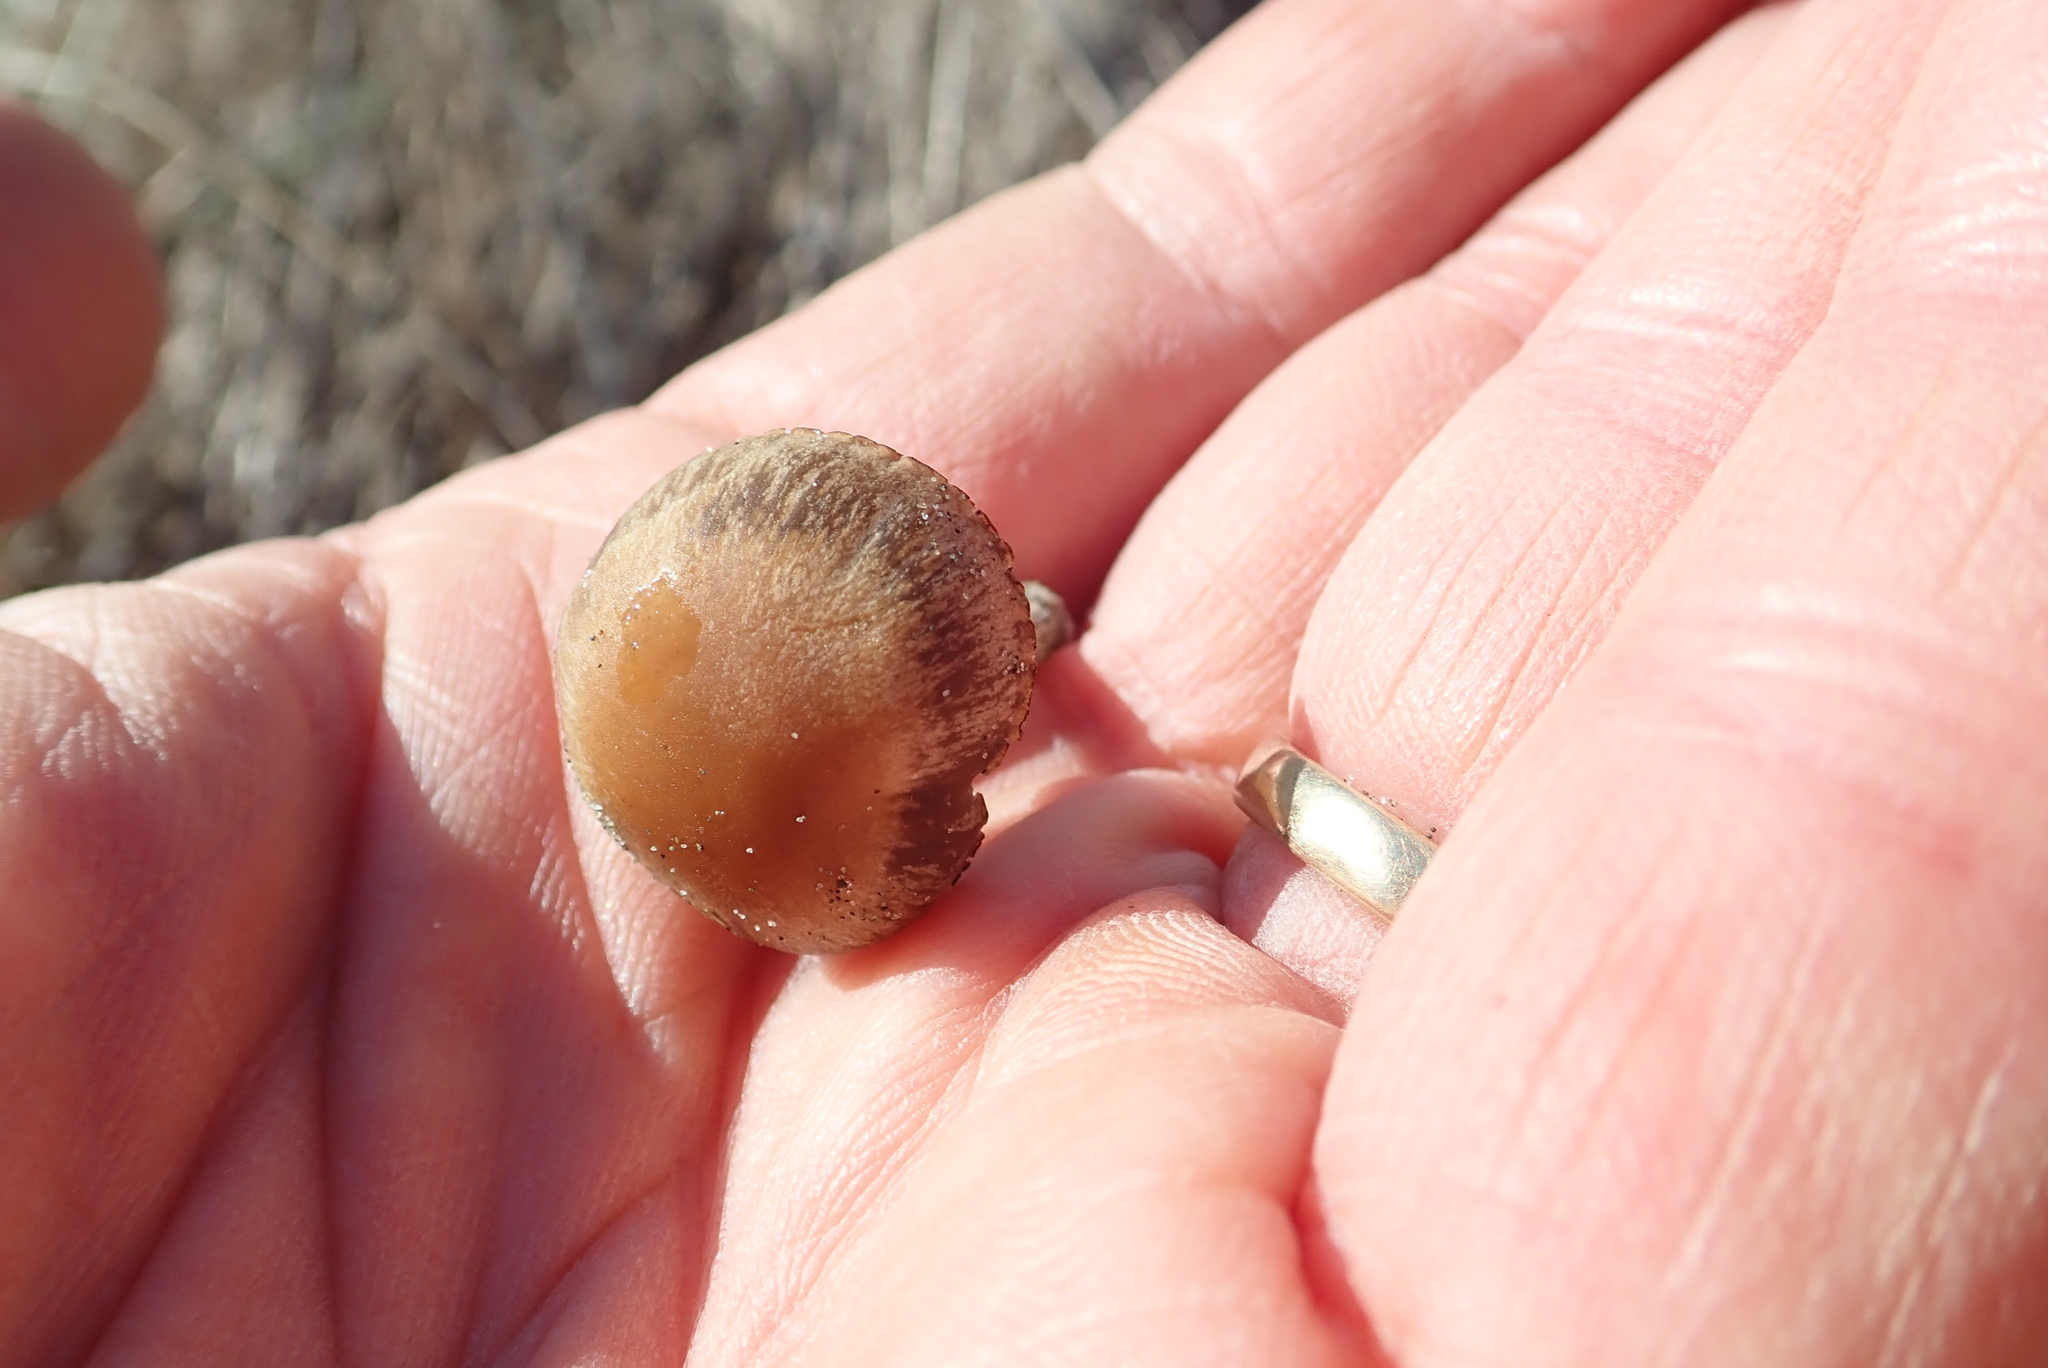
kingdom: Fungi
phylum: Basidiomycota
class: Agaricomycetes
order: Agaricales
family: Psathyrellaceae
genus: Psathyrella
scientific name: Psathyrella ammophila
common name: Dune brittlestem
